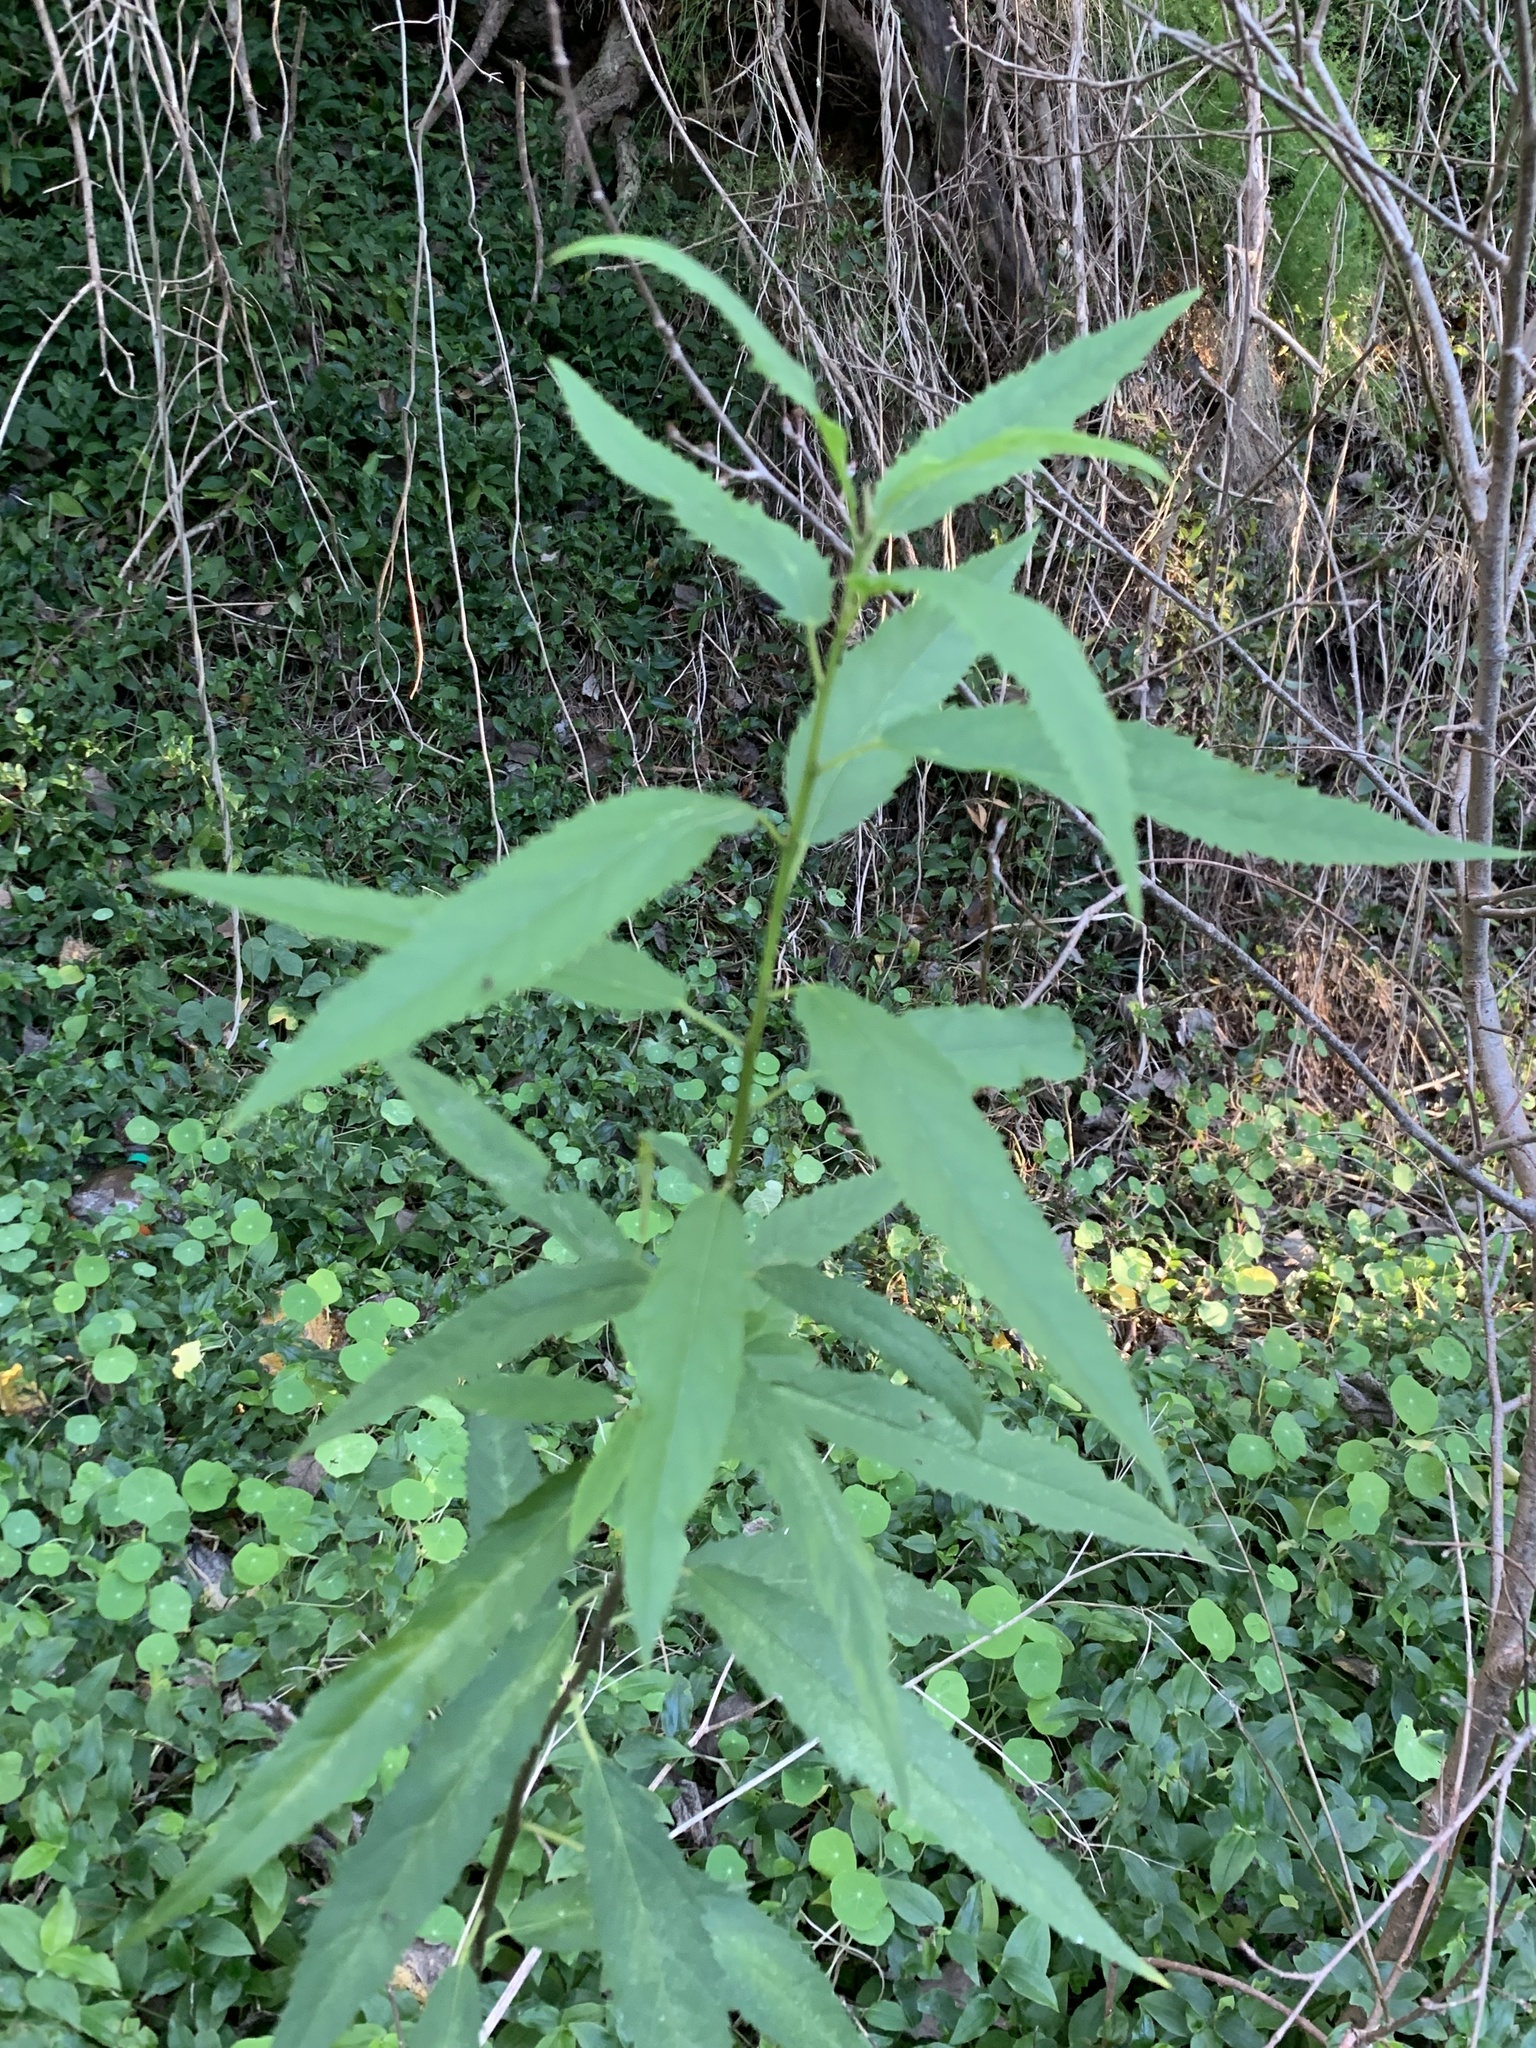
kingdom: Plantae
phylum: Tracheophyta
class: Magnoliopsida
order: Malpighiales
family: Achariaceae
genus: Kiggelaria
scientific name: Kiggelaria africana
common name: Wild peach
